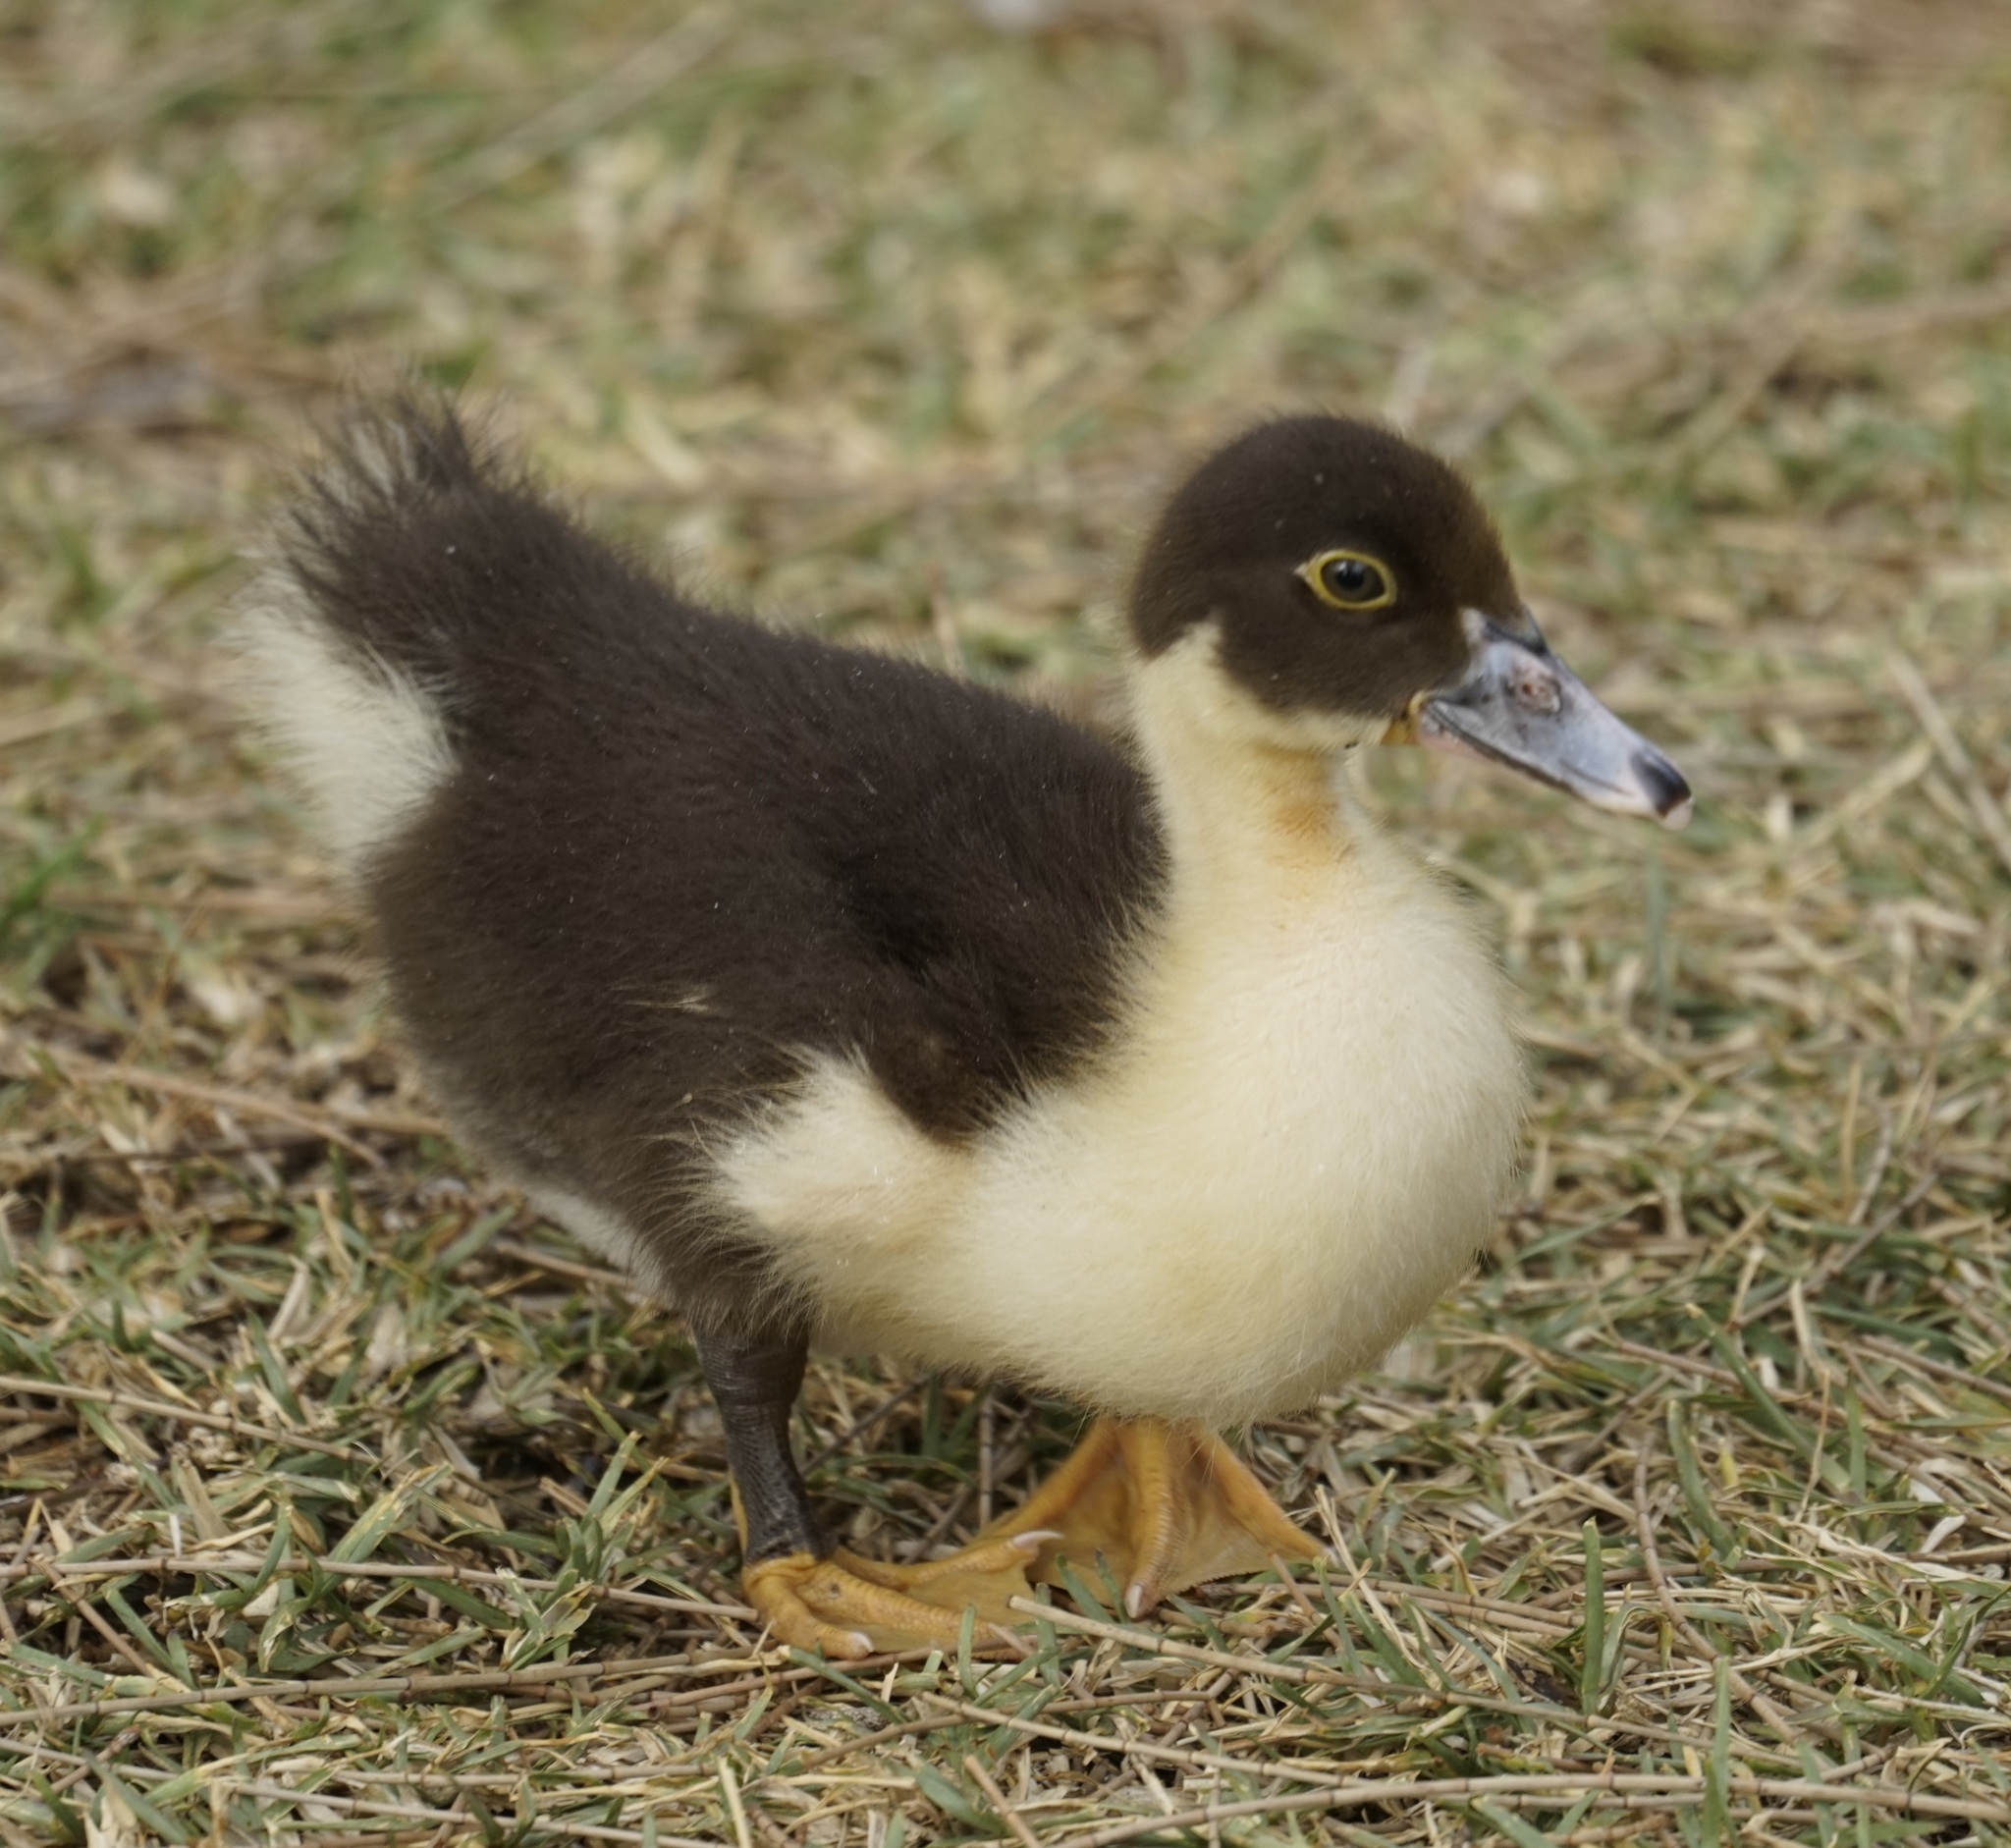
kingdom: Animalia
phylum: Chordata
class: Aves
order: Anseriformes
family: Anatidae
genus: Cairina
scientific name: Cairina moschata
